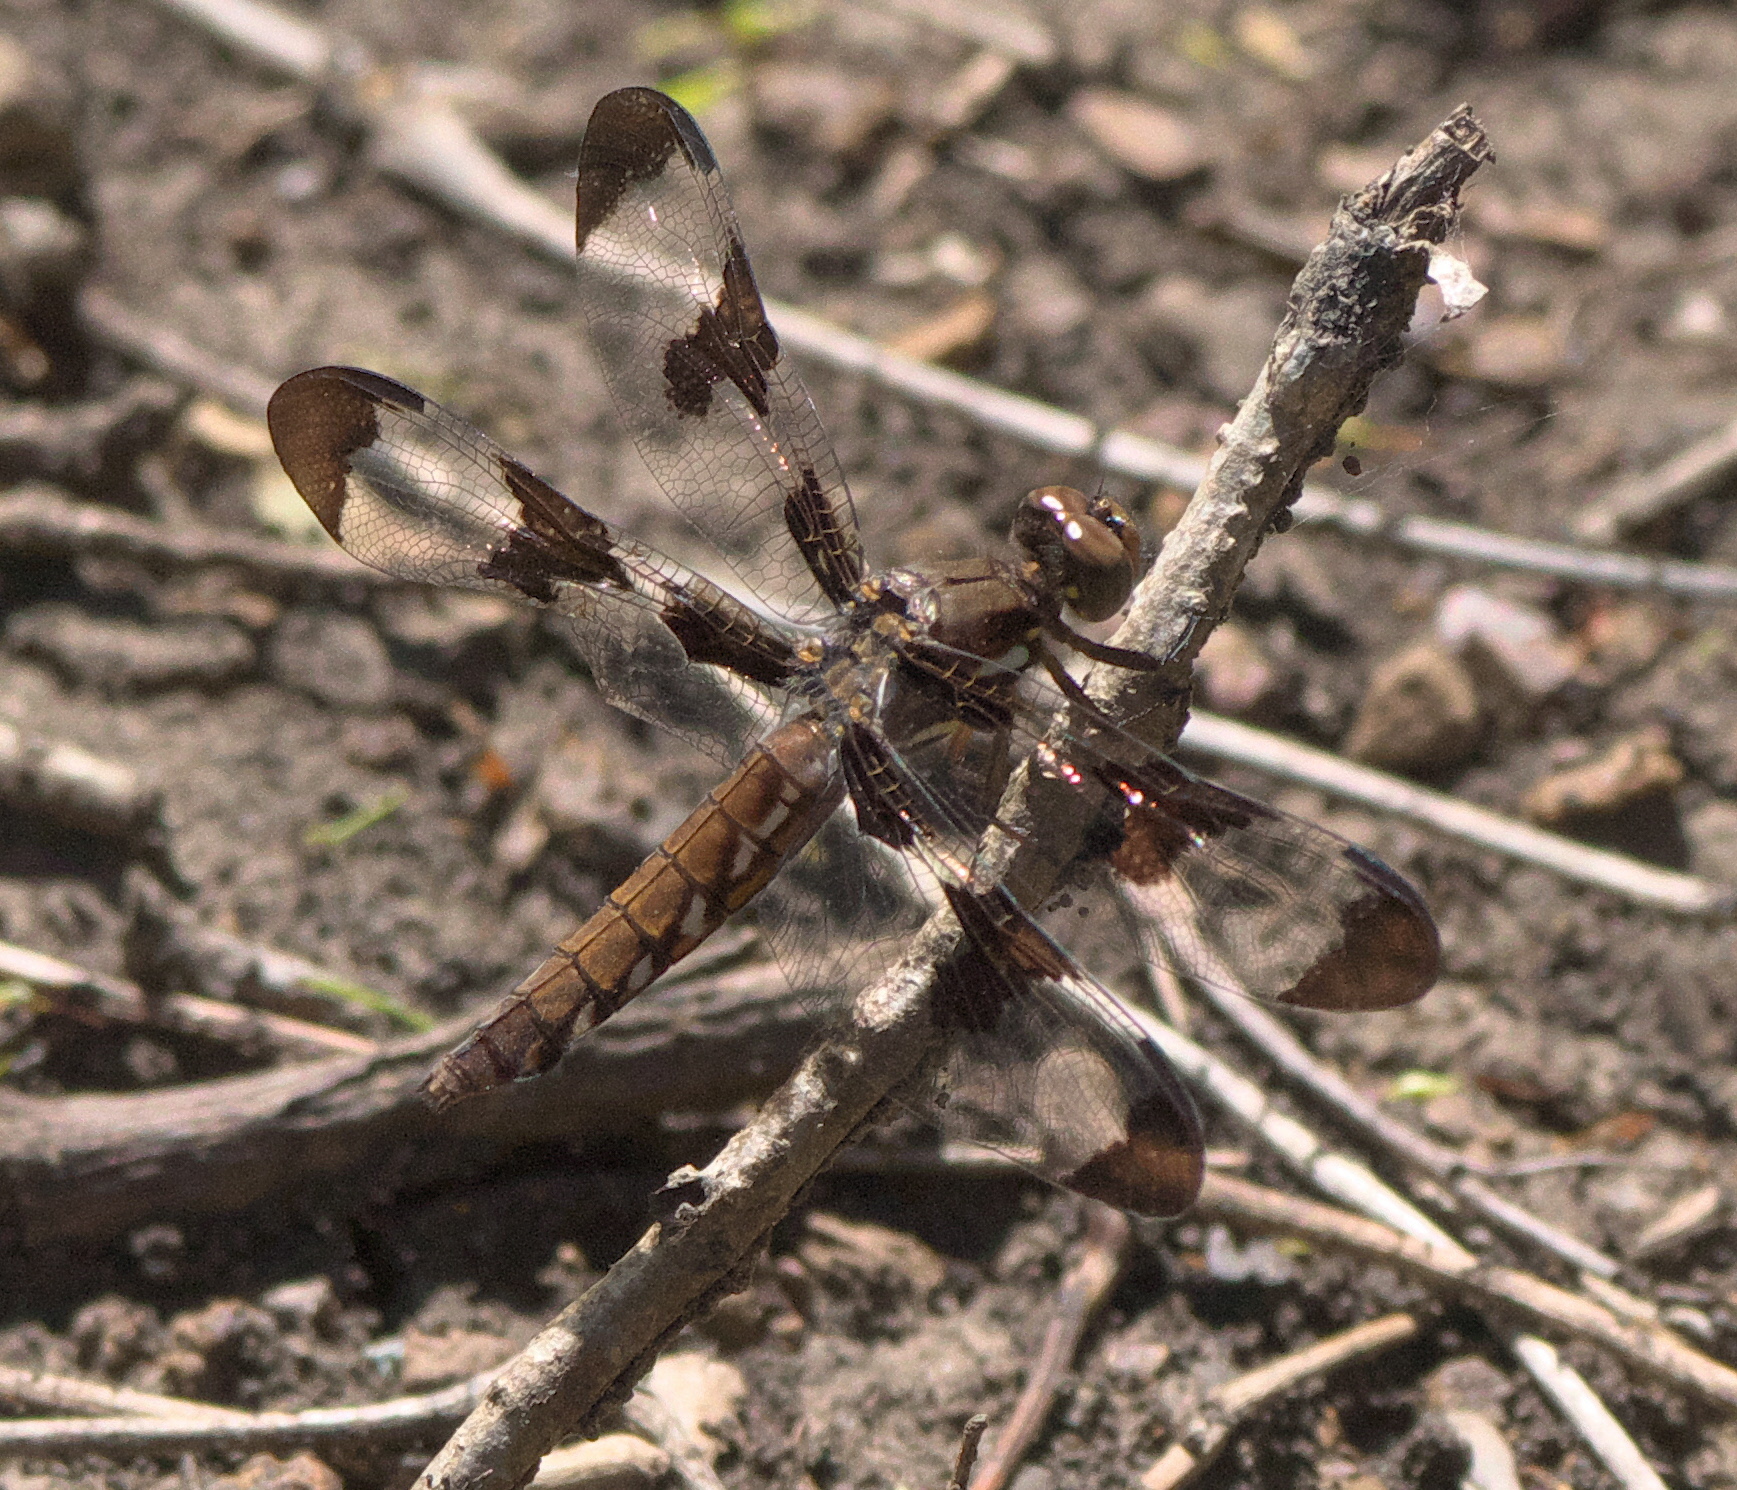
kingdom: Animalia
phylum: Arthropoda
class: Insecta
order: Odonata
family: Libellulidae
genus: Plathemis
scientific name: Plathemis lydia
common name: Common whitetail
